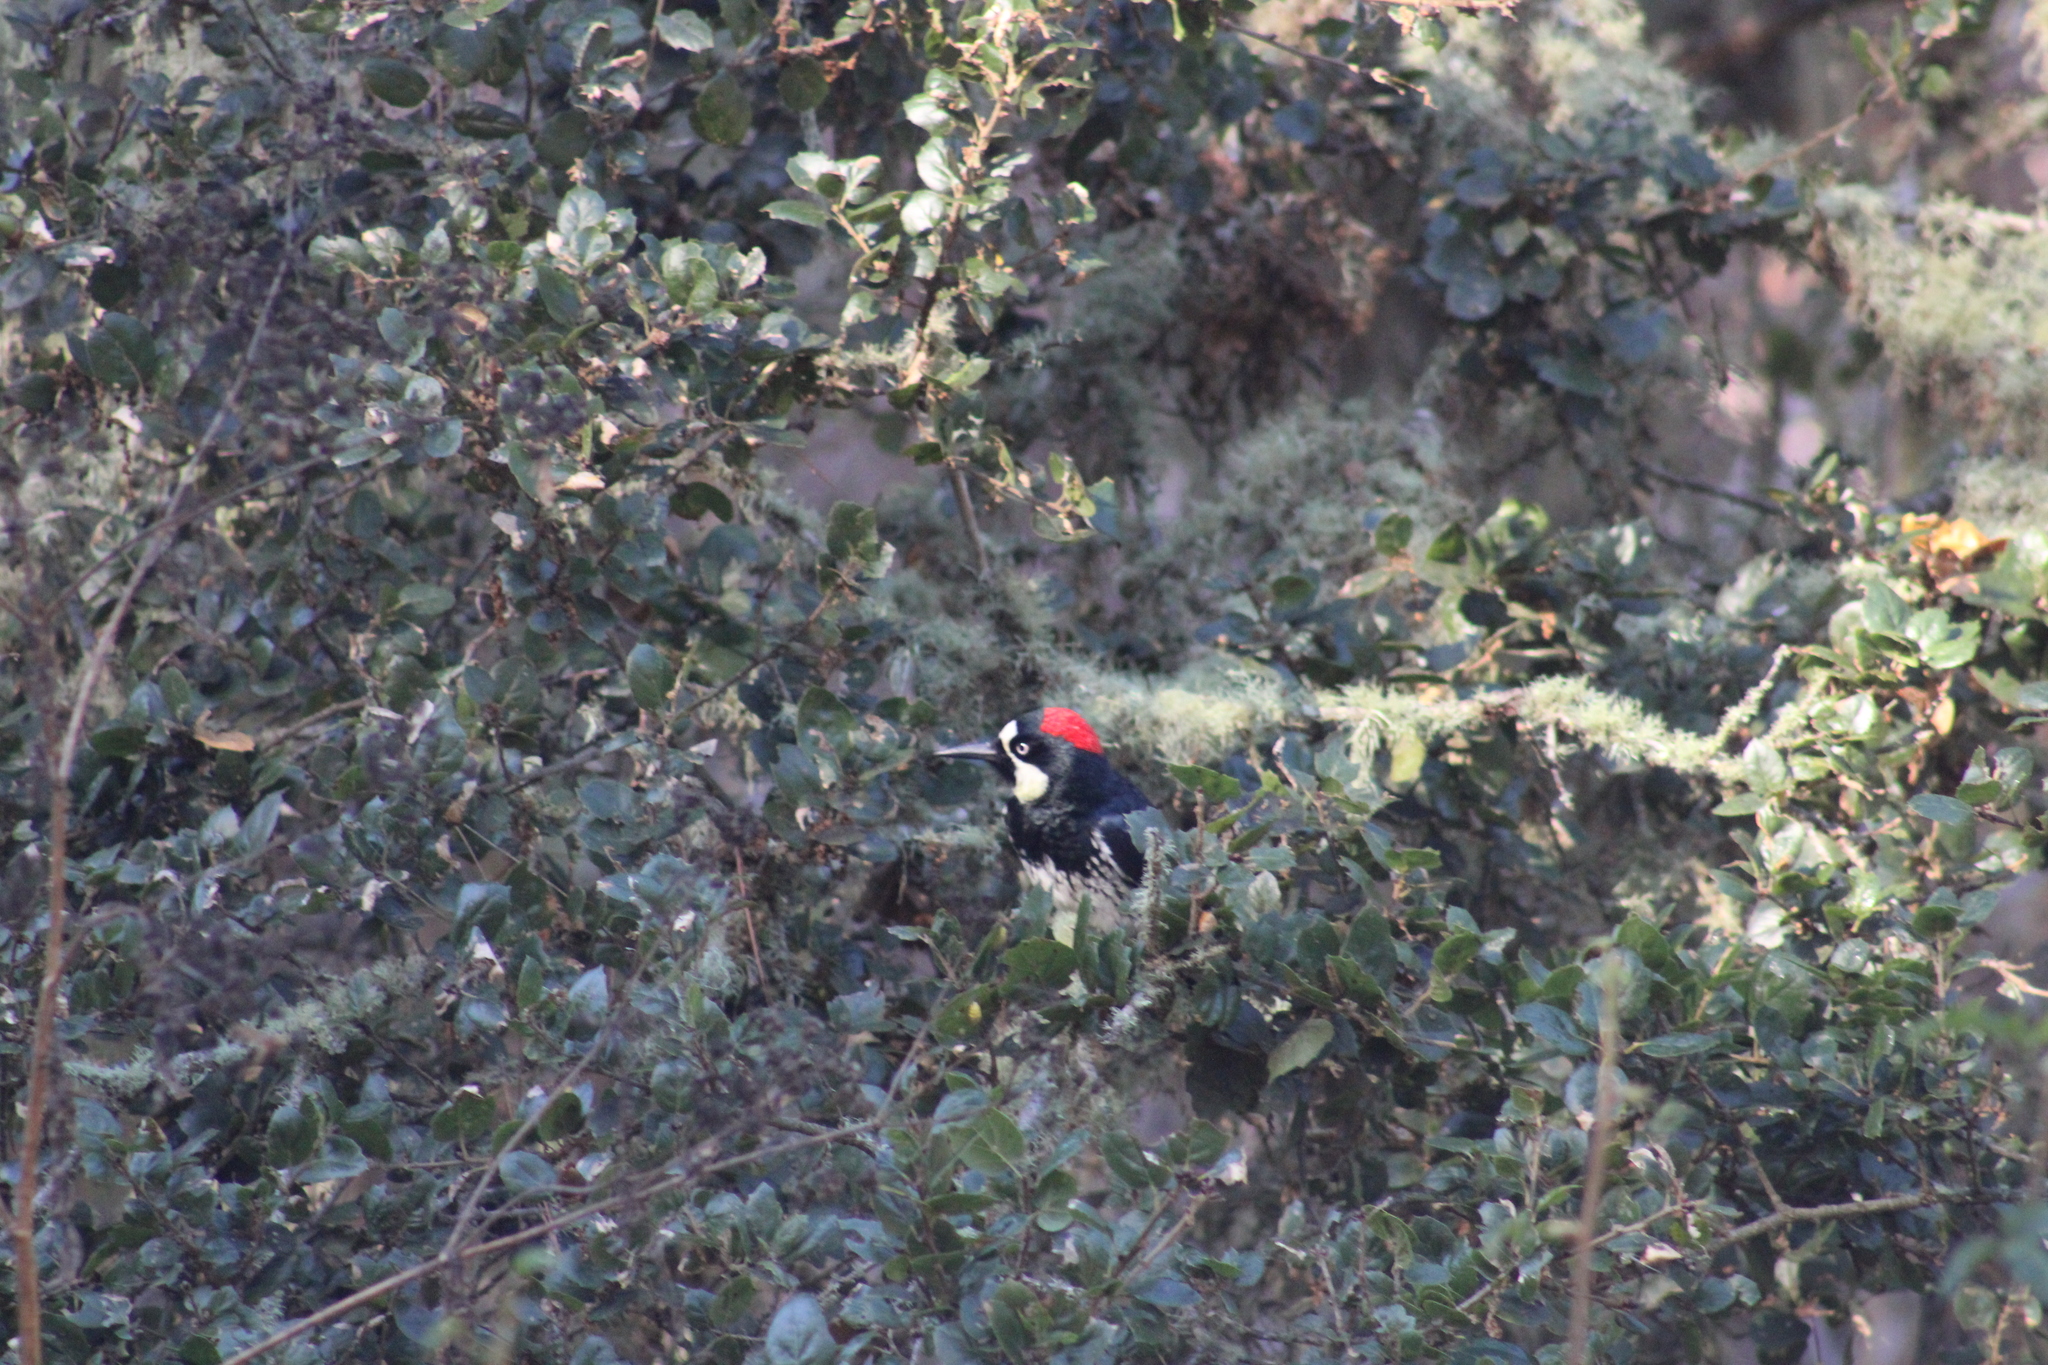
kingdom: Animalia
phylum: Chordata
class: Aves
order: Piciformes
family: Picidae
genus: Melanerpes
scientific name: Melanerpes formicivorus
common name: Acorn woodpecker
